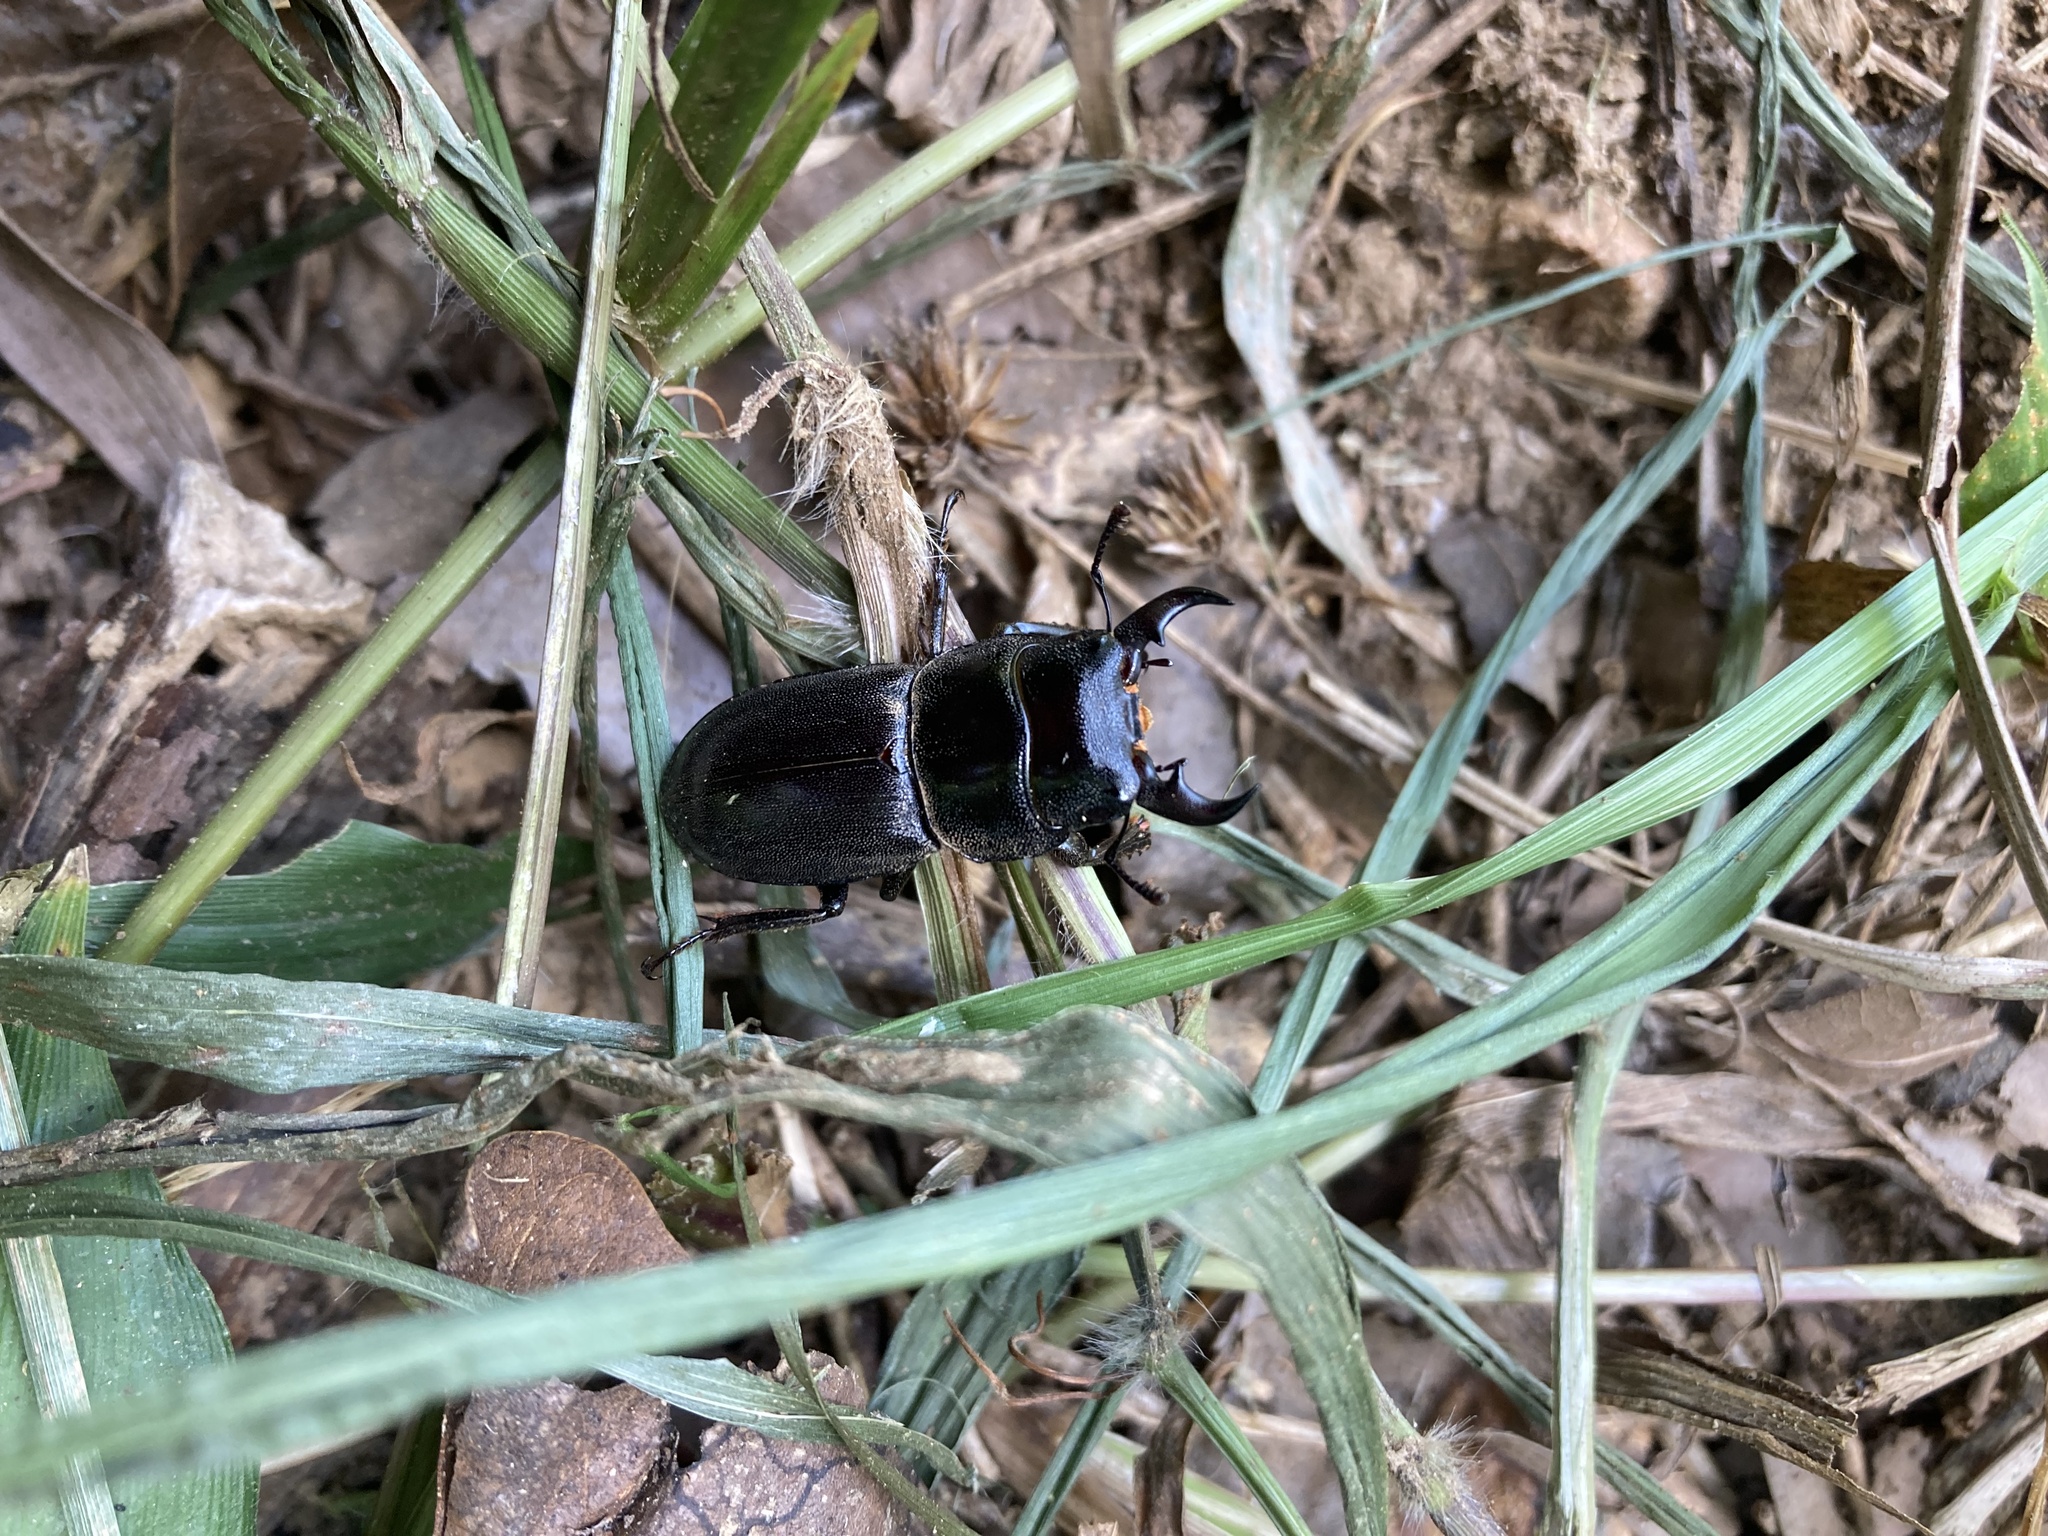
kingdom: Animalia
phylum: Arthropoda
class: Insecta
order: Coleoptera
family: Lucanidae
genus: Serrognathus
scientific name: Serrognathus kyanrauensis
